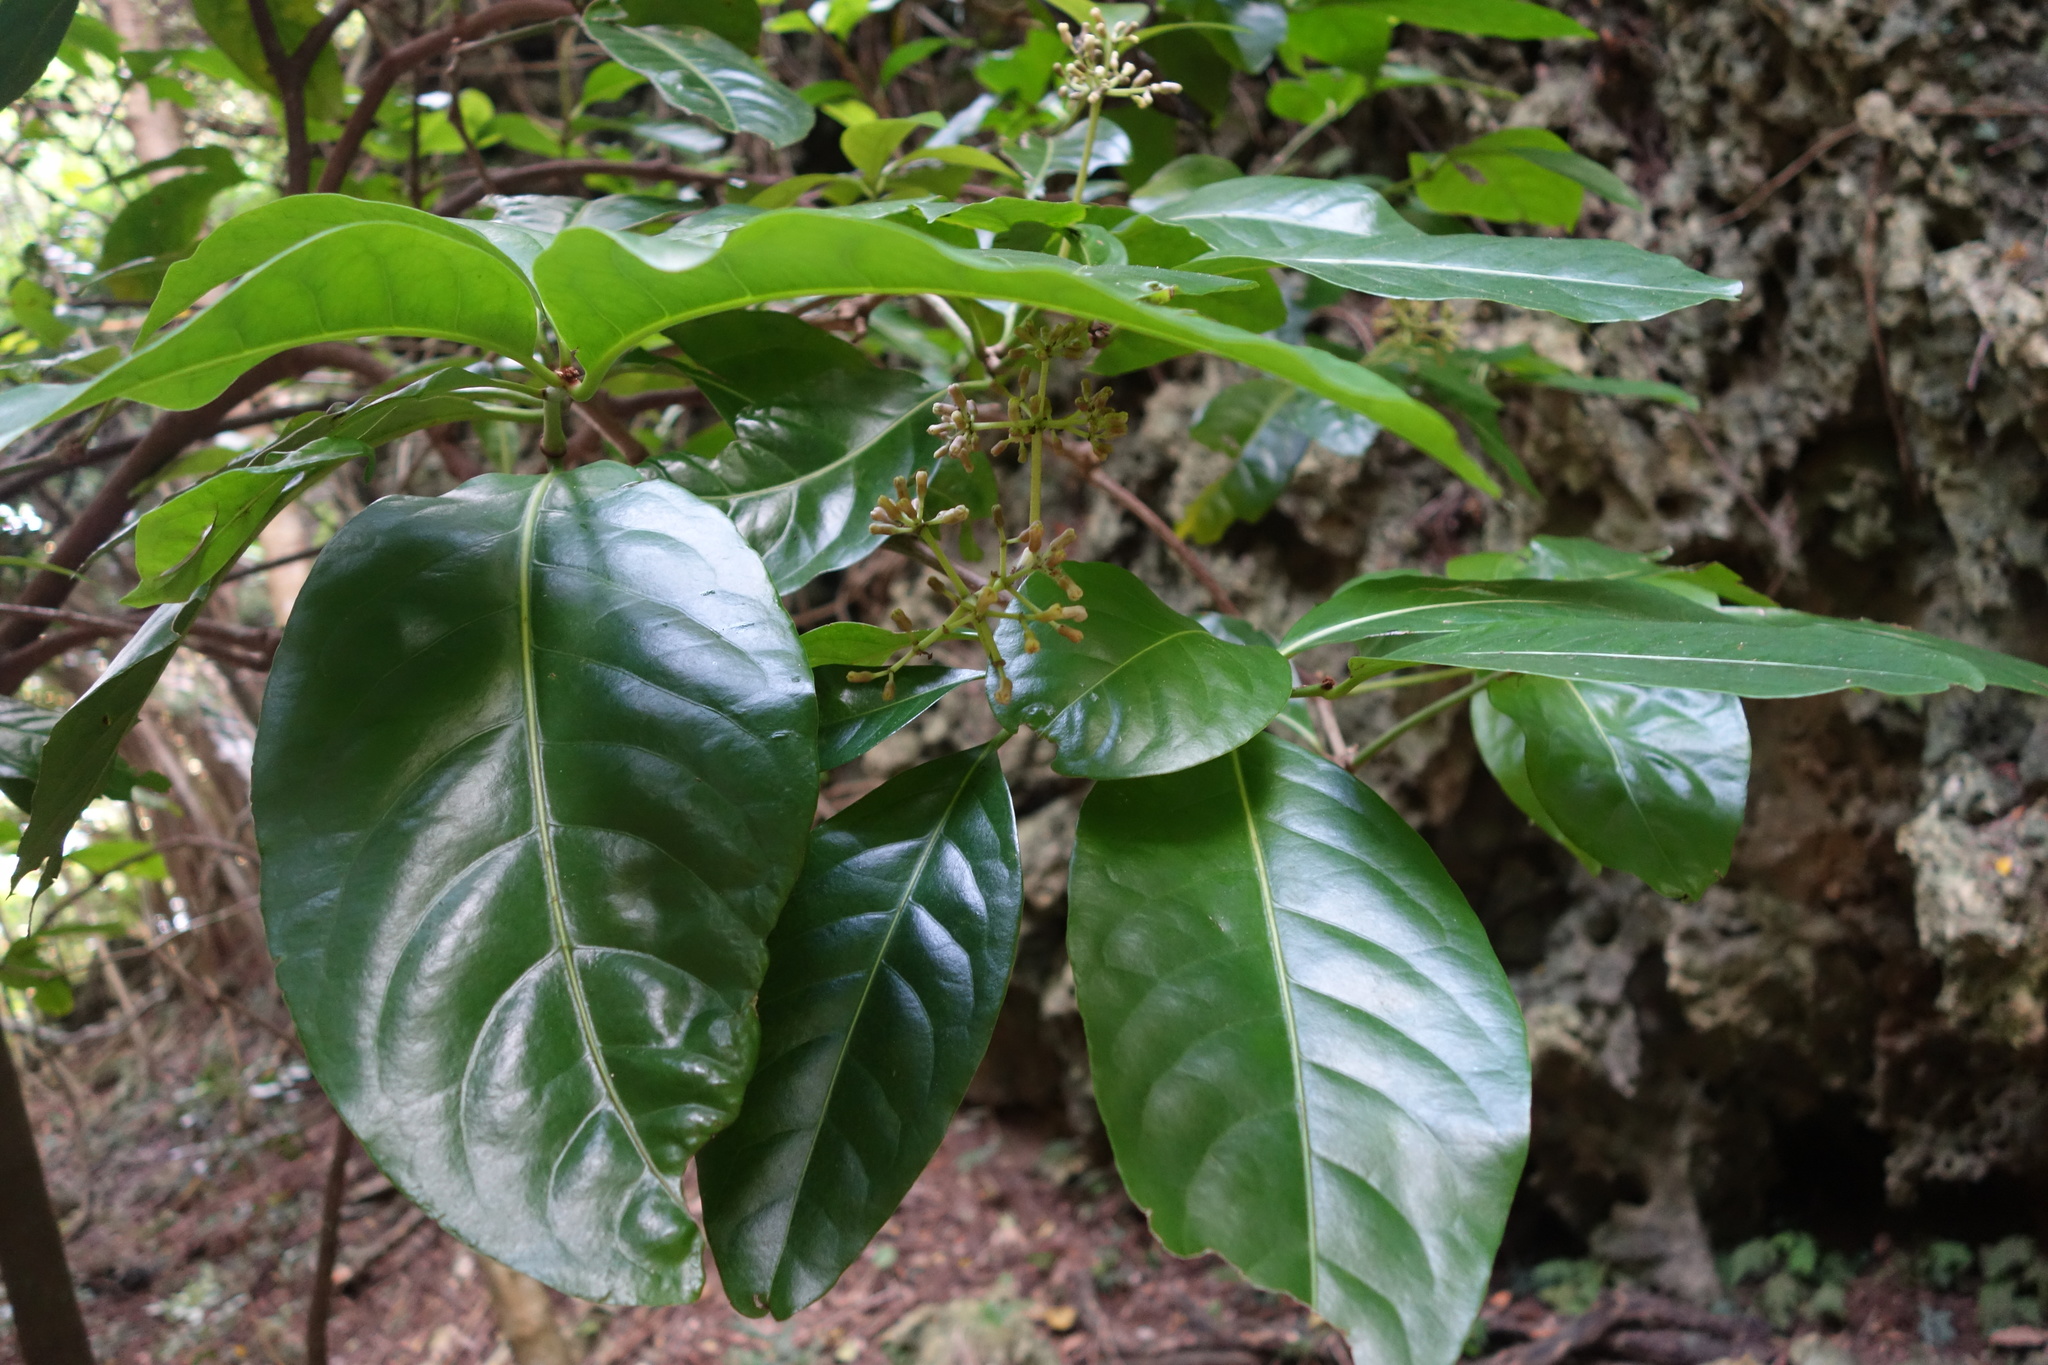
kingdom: Plantae
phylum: Tracheophyta
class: Magnoliopsida
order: Caryophyllales
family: Nyctaginaceae
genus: Ceodes
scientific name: Ceodes umbellifera
